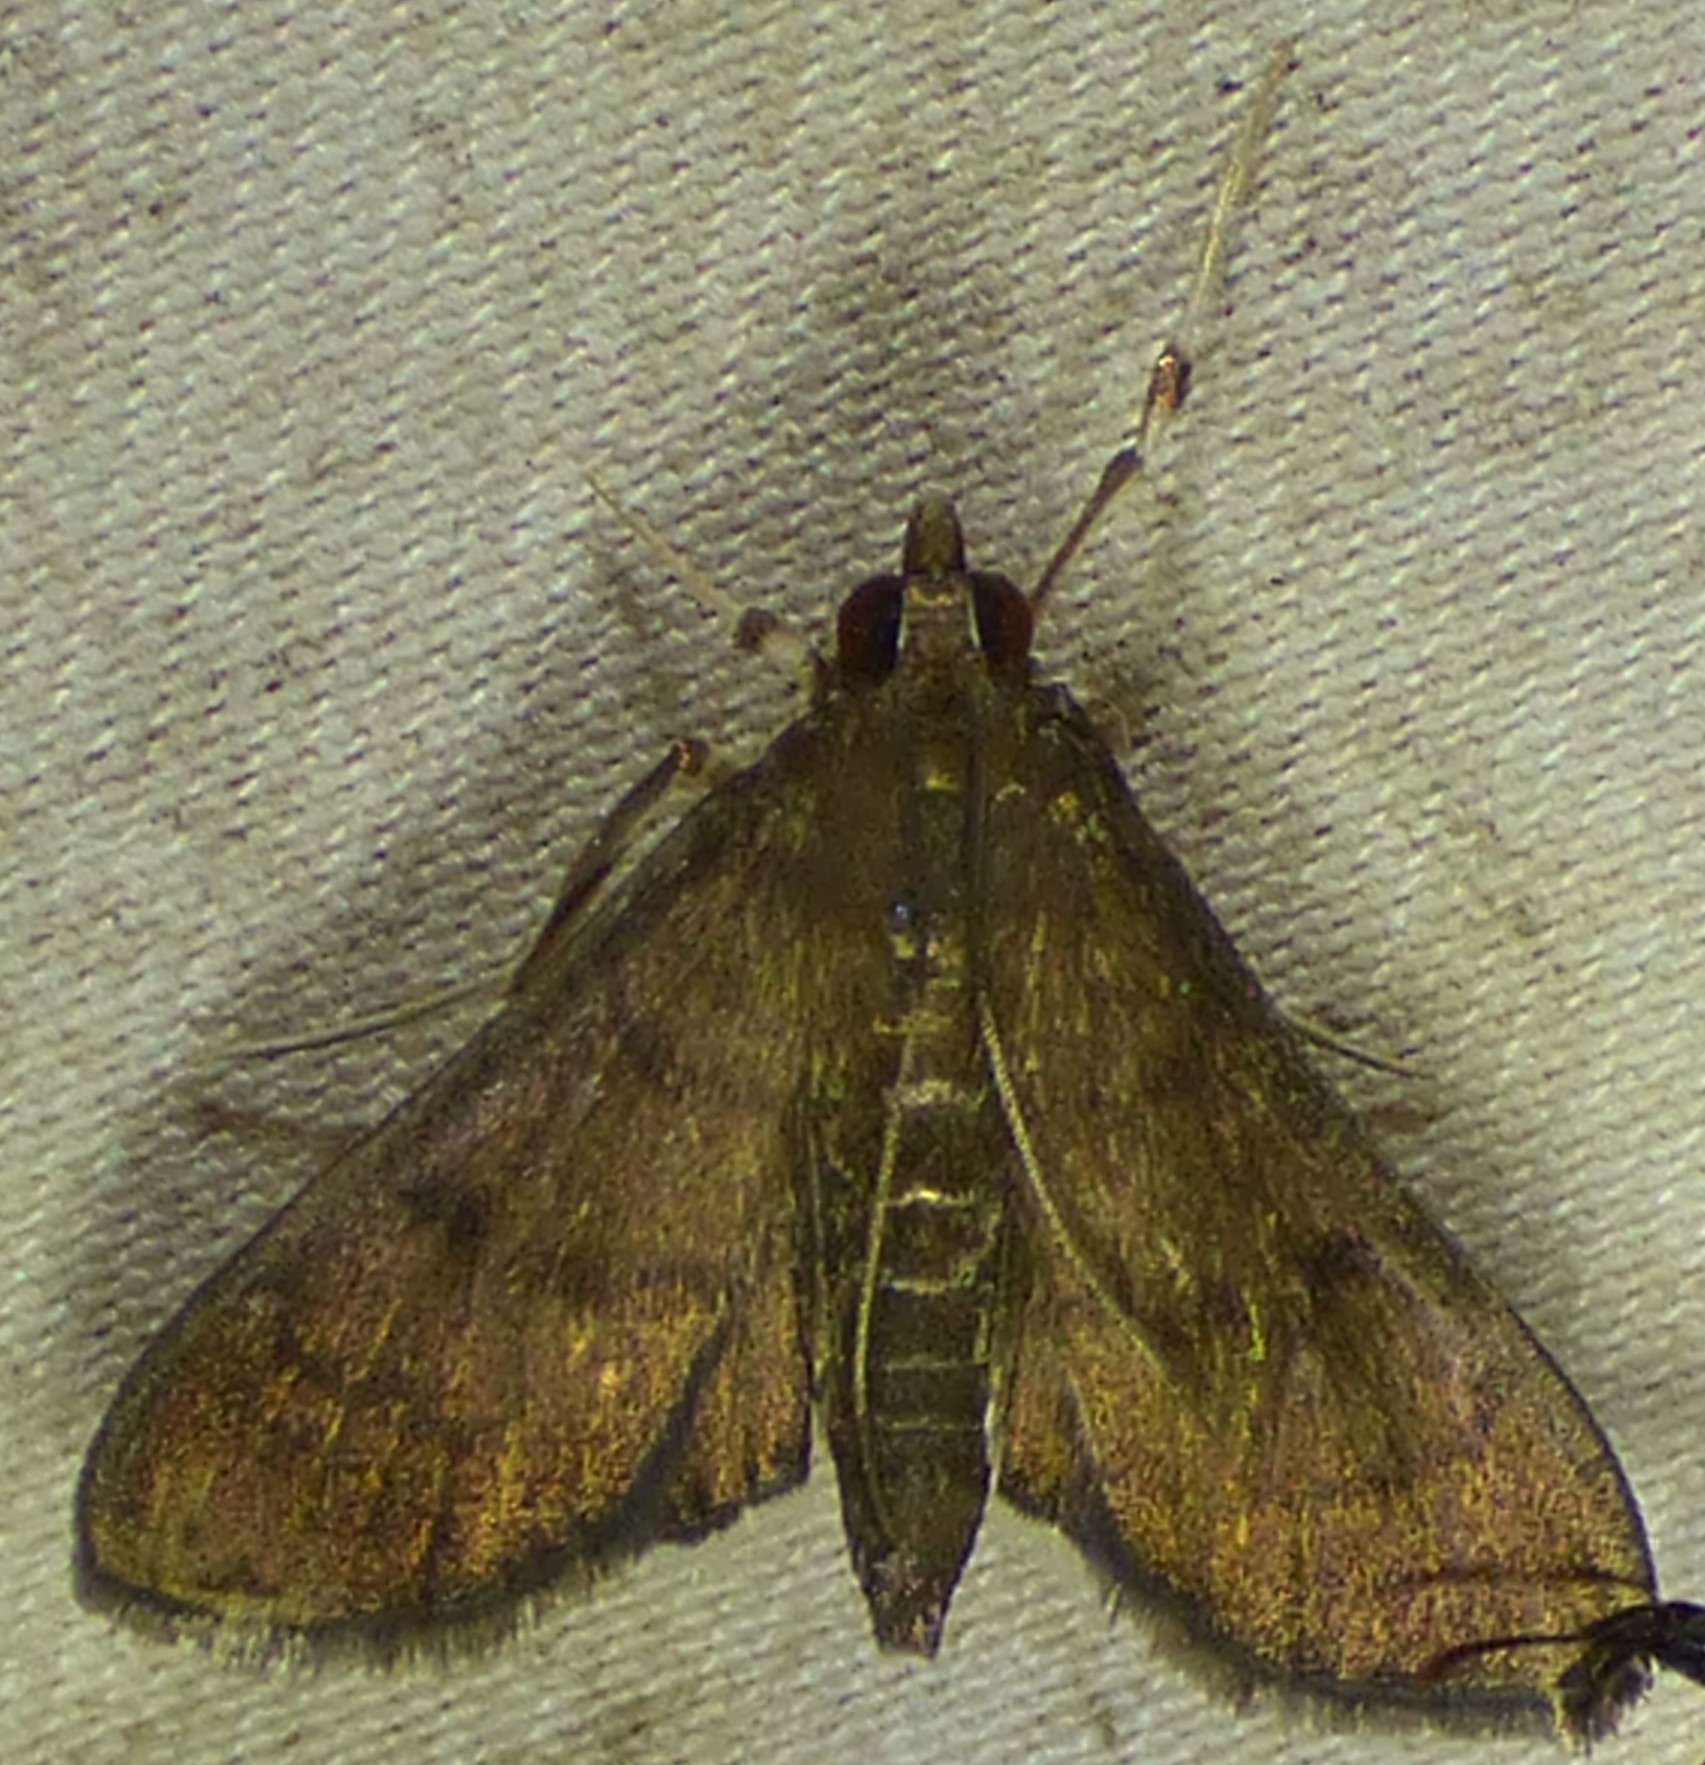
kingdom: Animalia
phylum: Arthropoda
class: Insecta
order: Lepidoptera
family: Crambidae
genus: Herpetogramma
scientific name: Herpetogramma phaeopteralis
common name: Dusky herpetogramma moth
